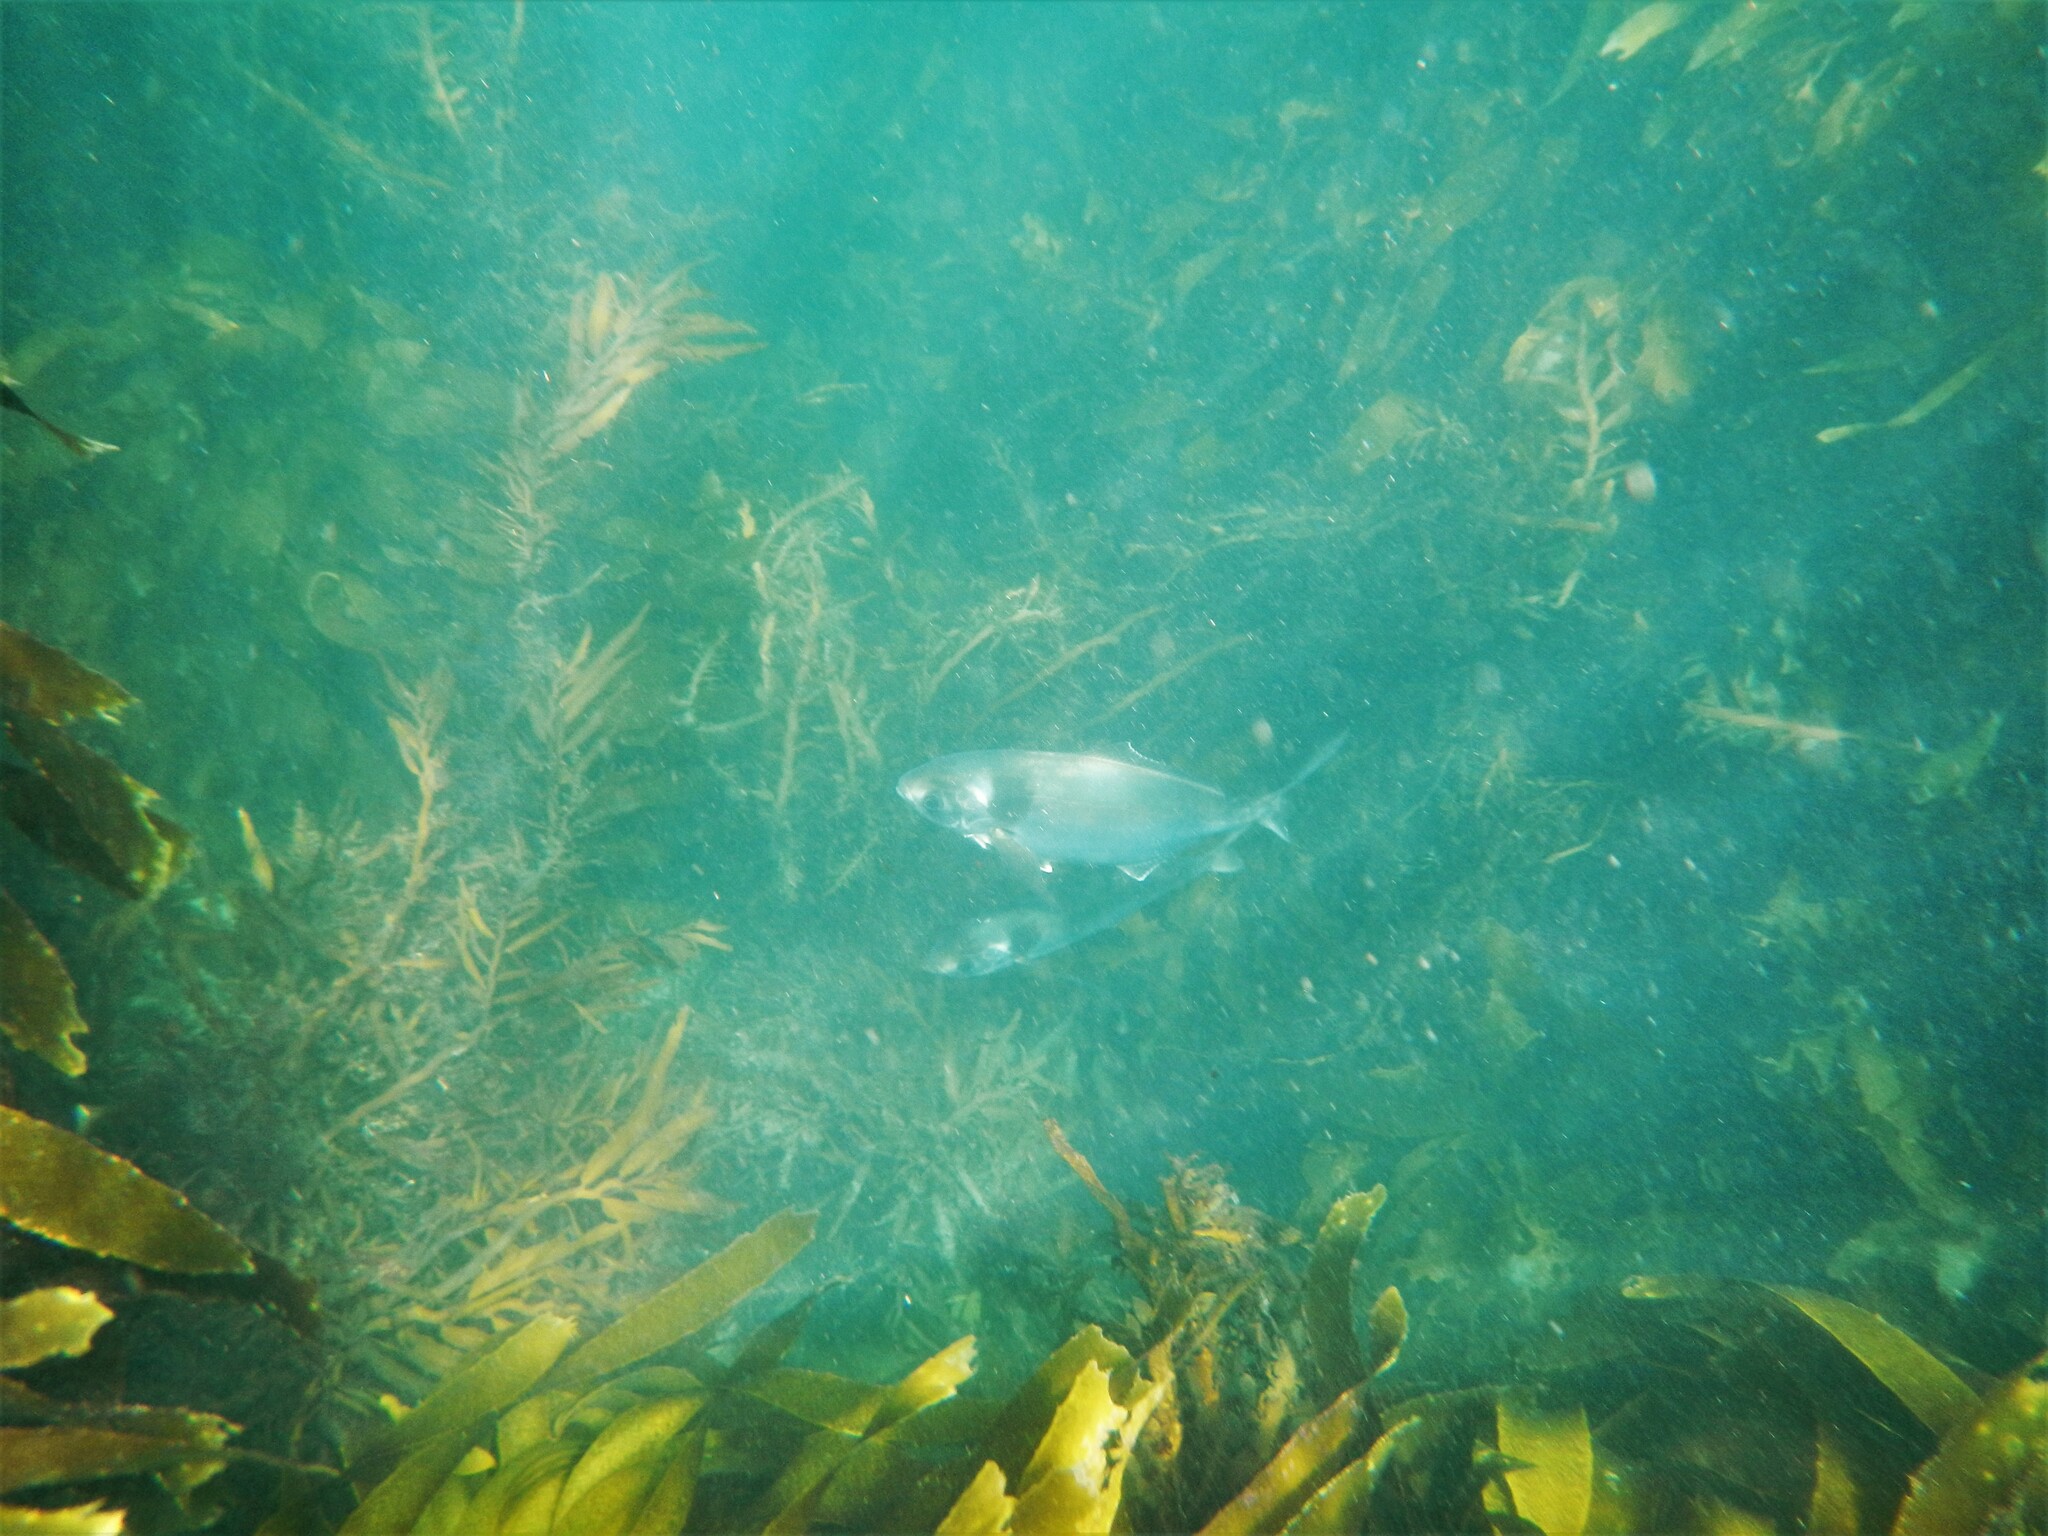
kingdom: Animalia
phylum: Chordata
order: Perciformes
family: Centrolophidae
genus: Seriolella
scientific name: Seriolella brama
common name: Blue warehou
